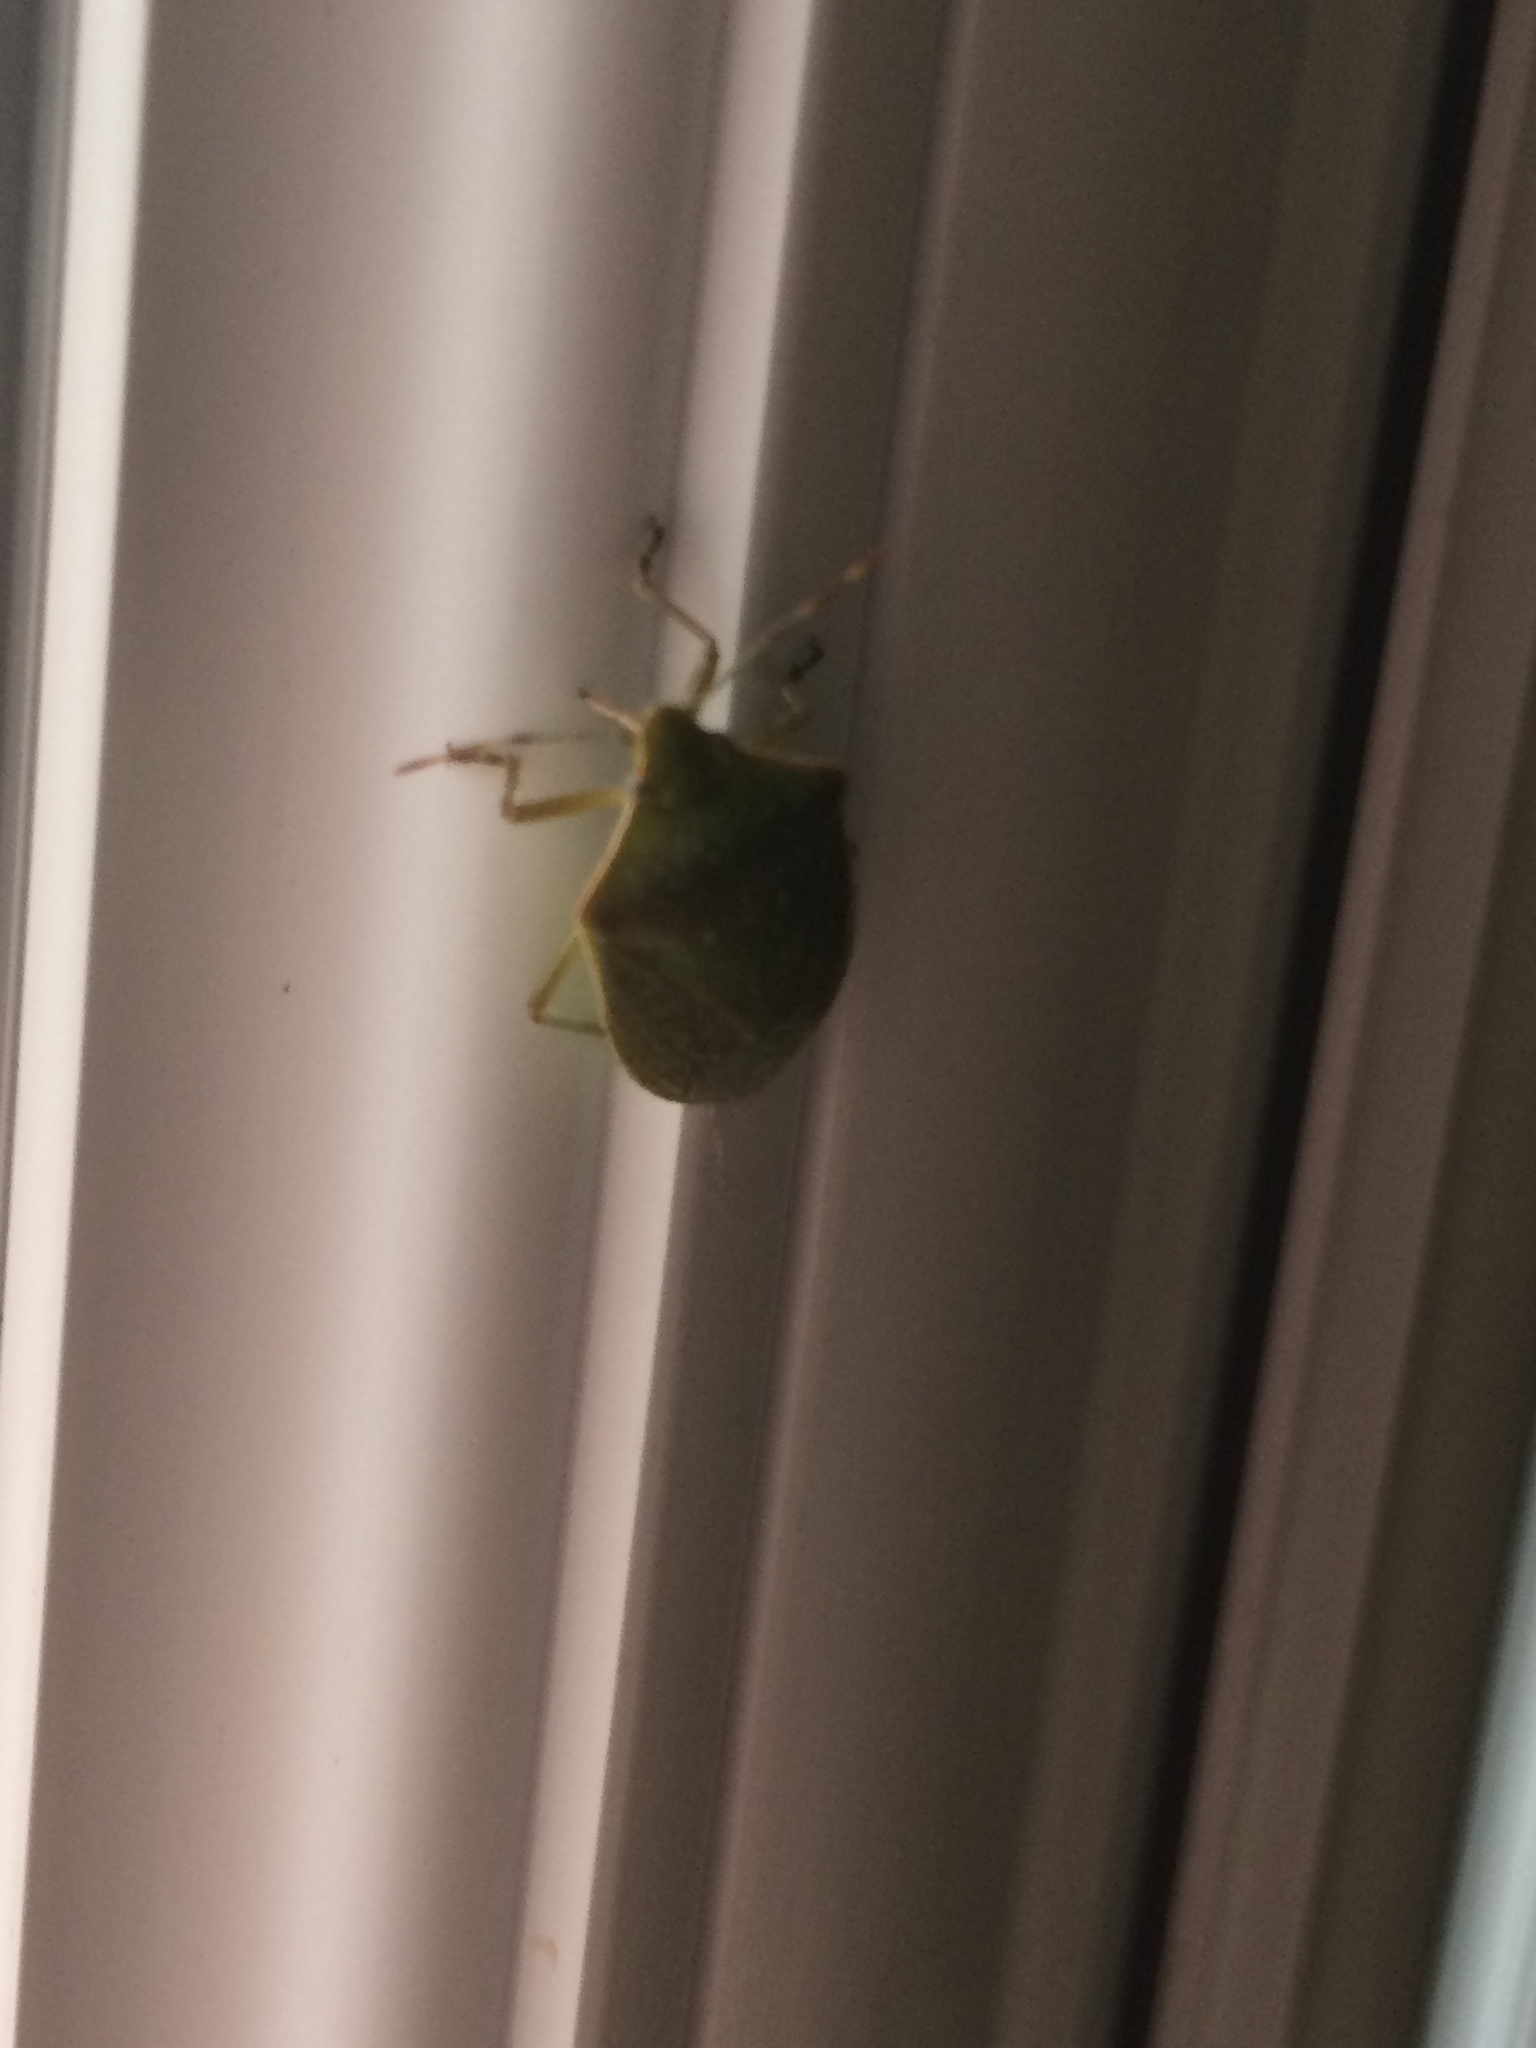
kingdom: Animalia
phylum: Arthropoda
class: Insecta
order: Hemiptera
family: Pentatomidae
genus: Nezara
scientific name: Nezara viridula
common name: Southern green stink bug
